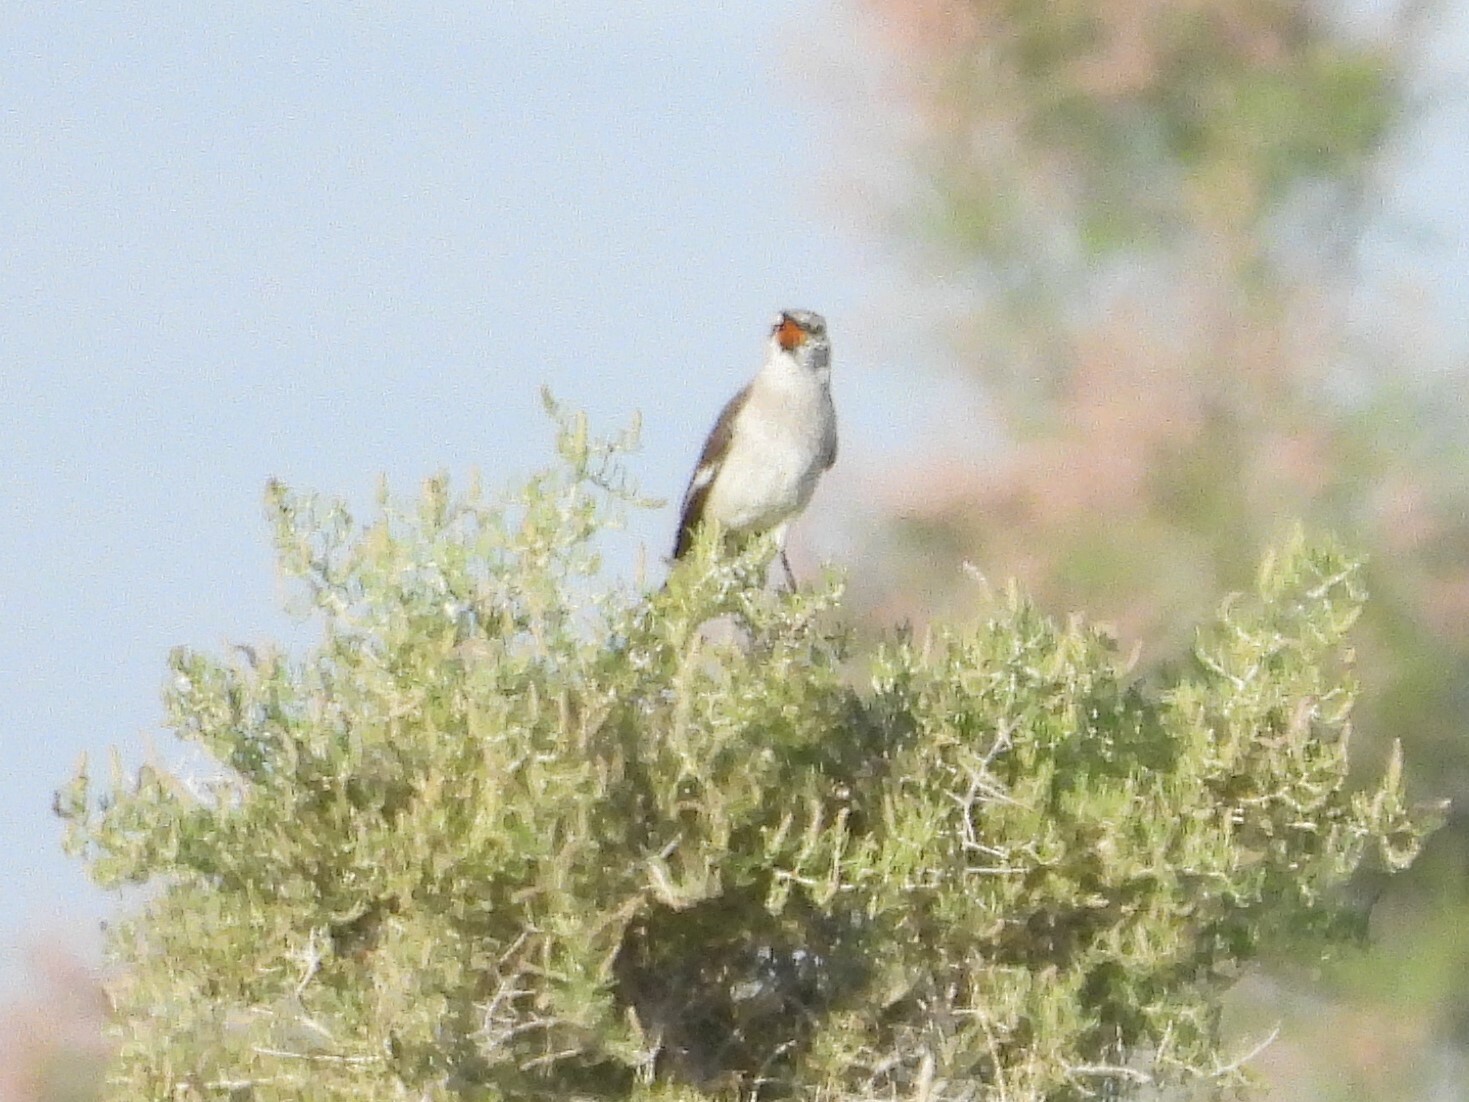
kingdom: Animalia
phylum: Chordata
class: Aves
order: Passeriformes
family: Mimidae
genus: Mimus
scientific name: Mimus polyglottos
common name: Northern mockingbird
